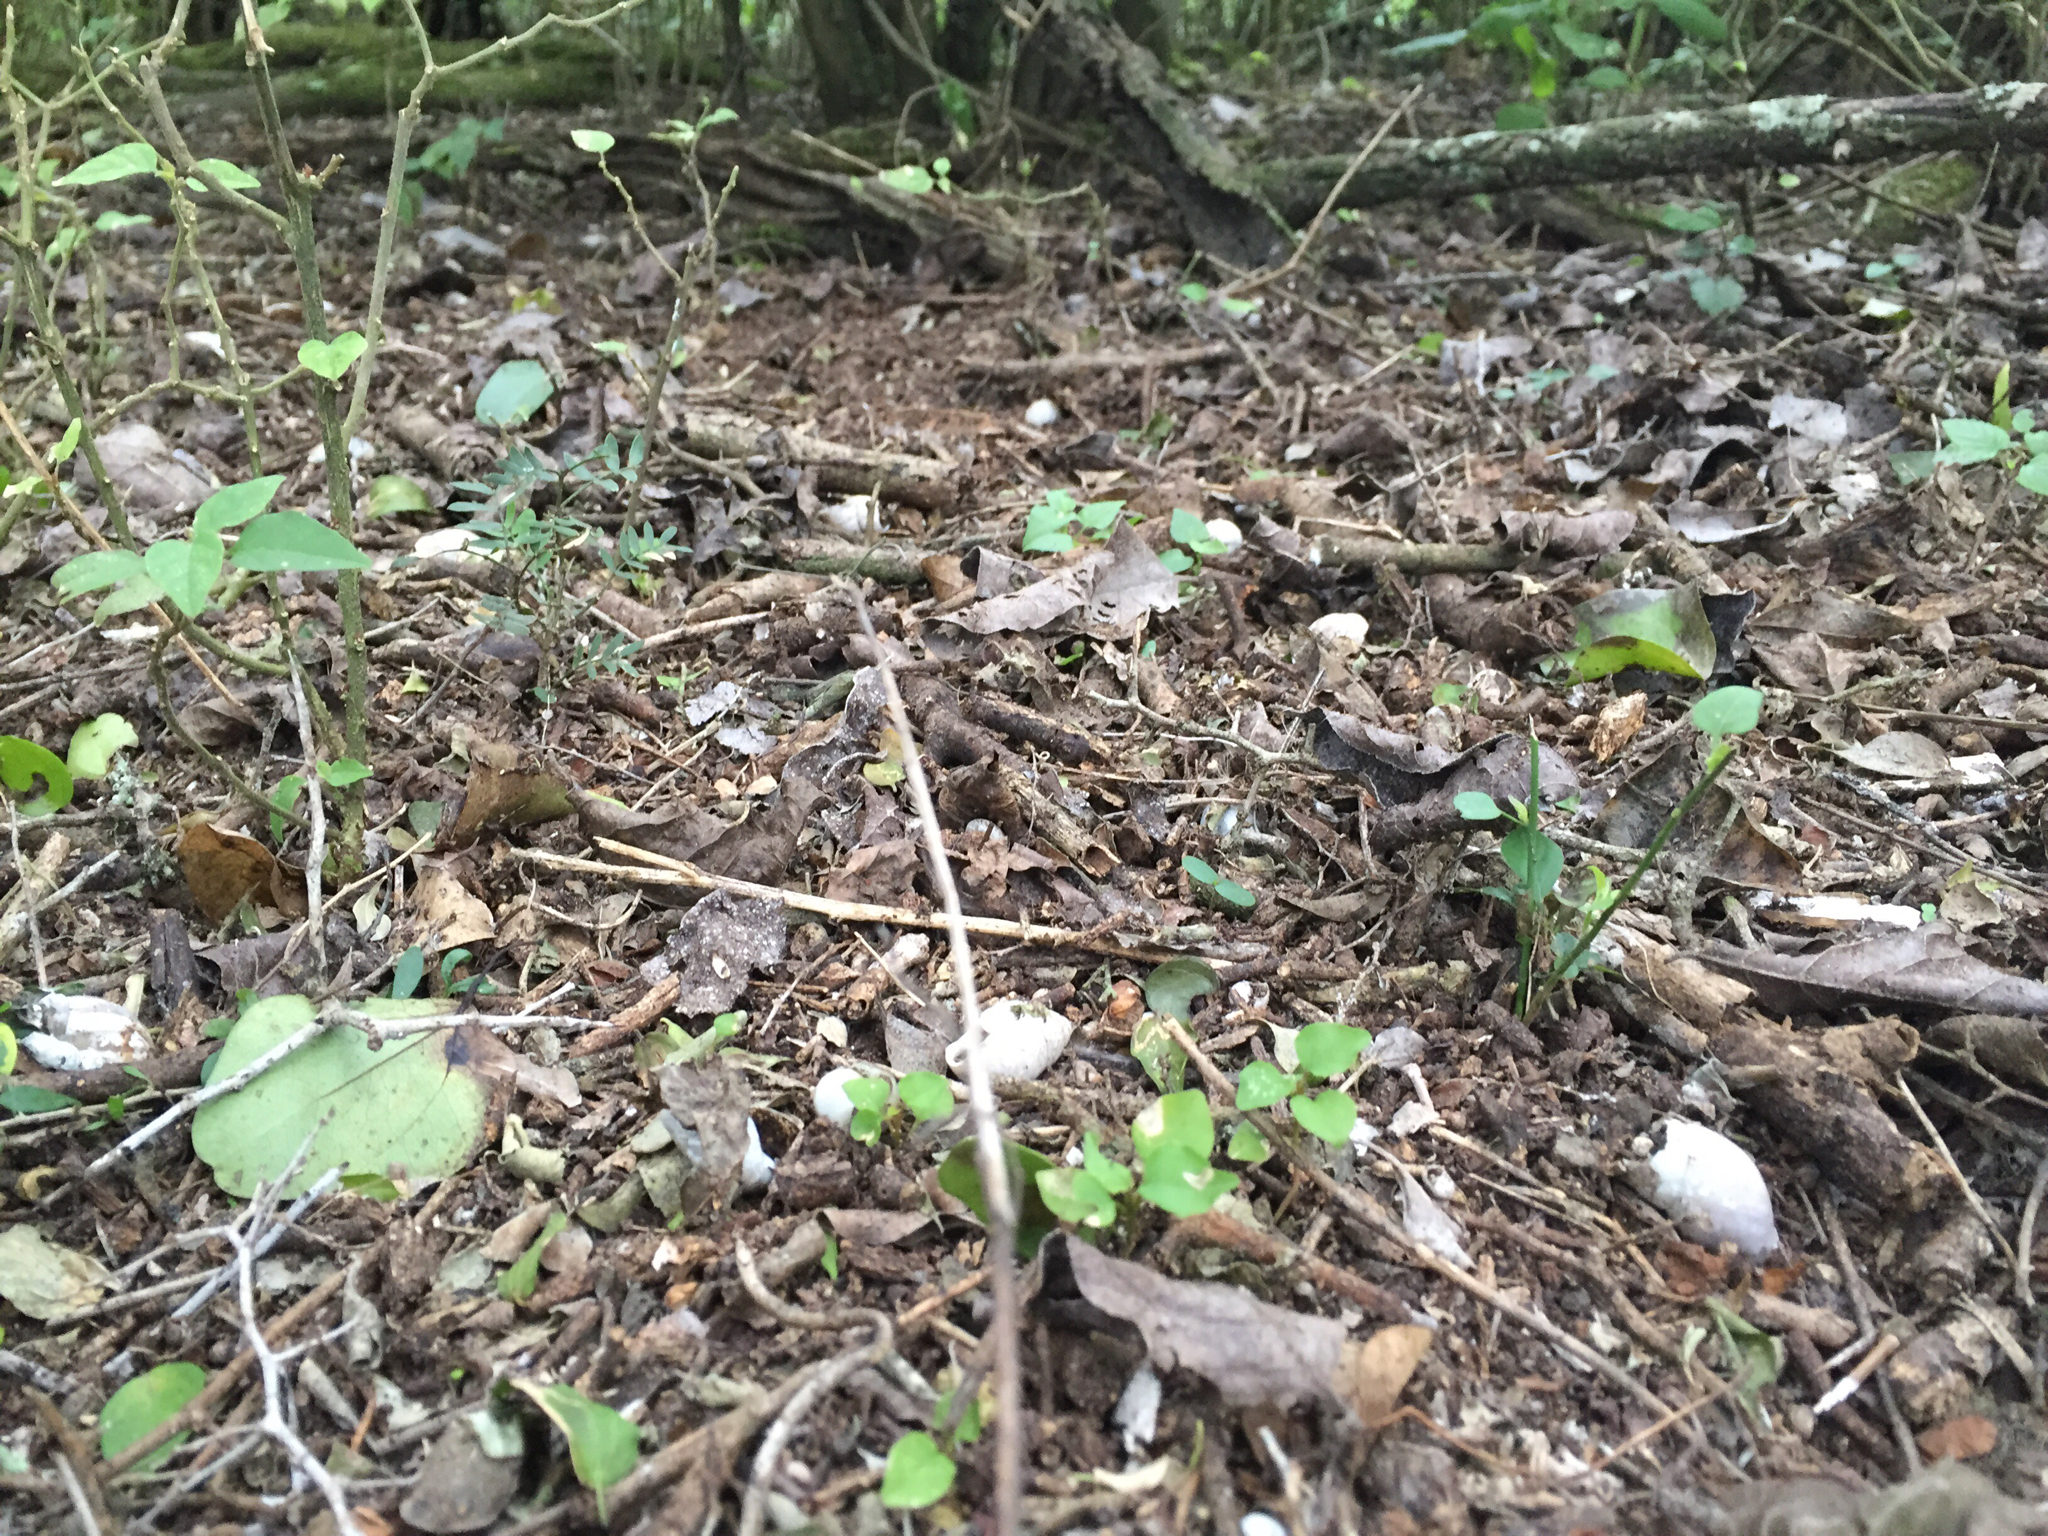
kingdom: Animalia
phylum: Mollusca
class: Gastropoda
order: Stylommatophora
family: Bulimulidae
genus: Rabdotus
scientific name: Rabdotus alternatus
